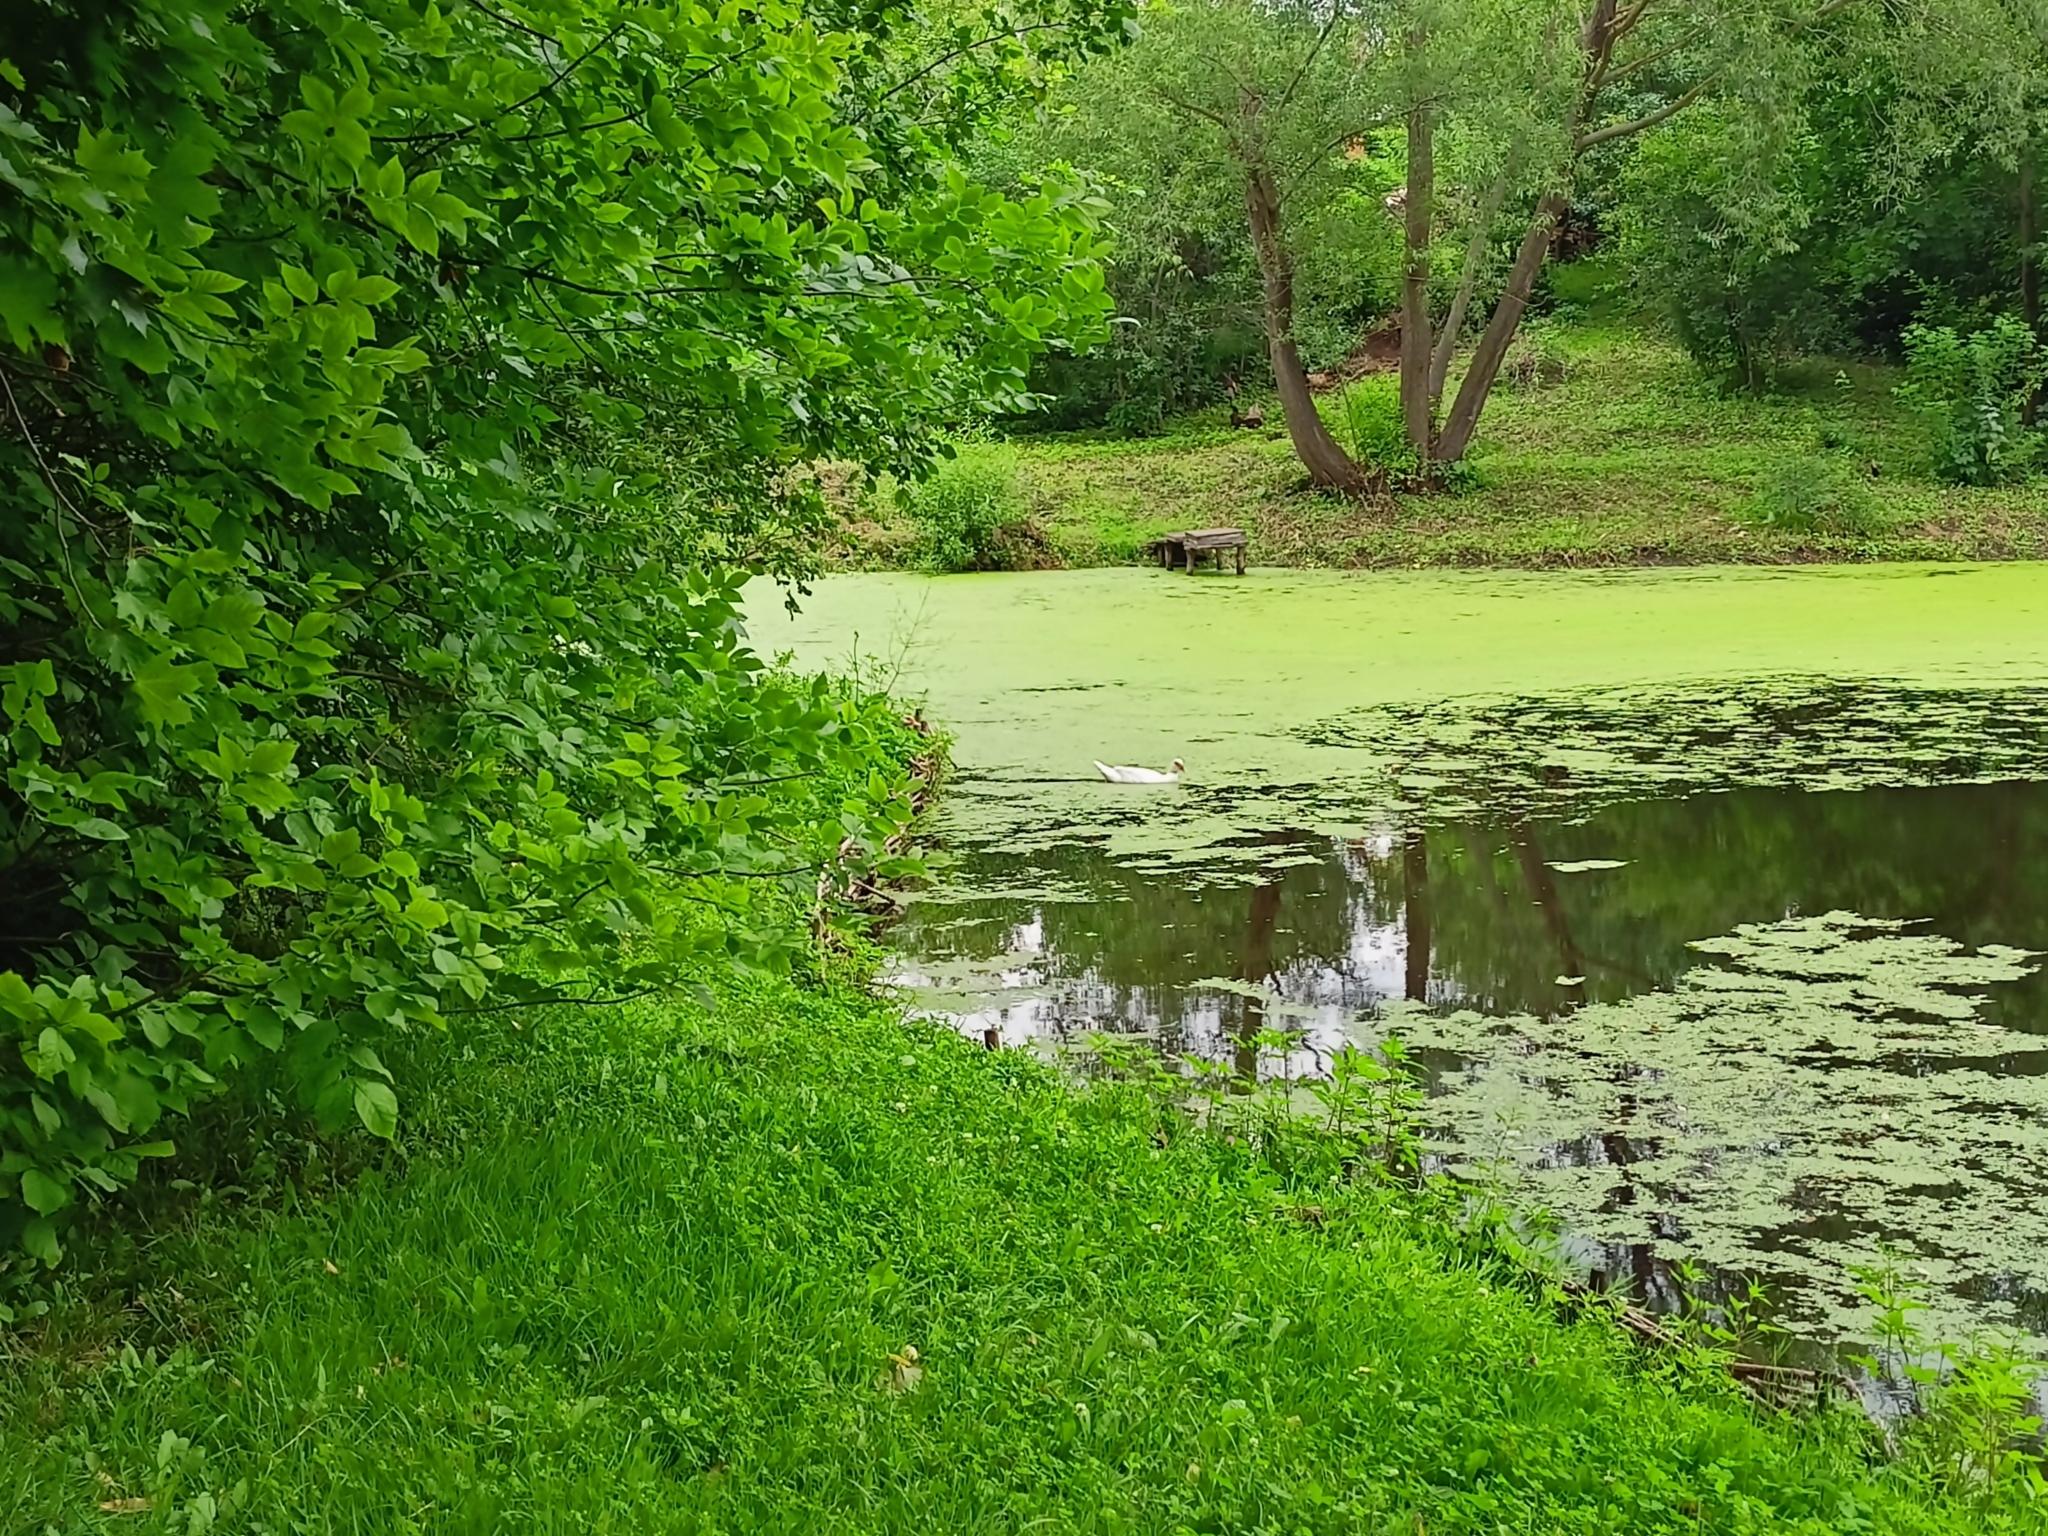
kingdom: Animalia
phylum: Chordata
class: Aves
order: Anseriformes
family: Anatidae
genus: Cairina
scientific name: Cairina moschata
